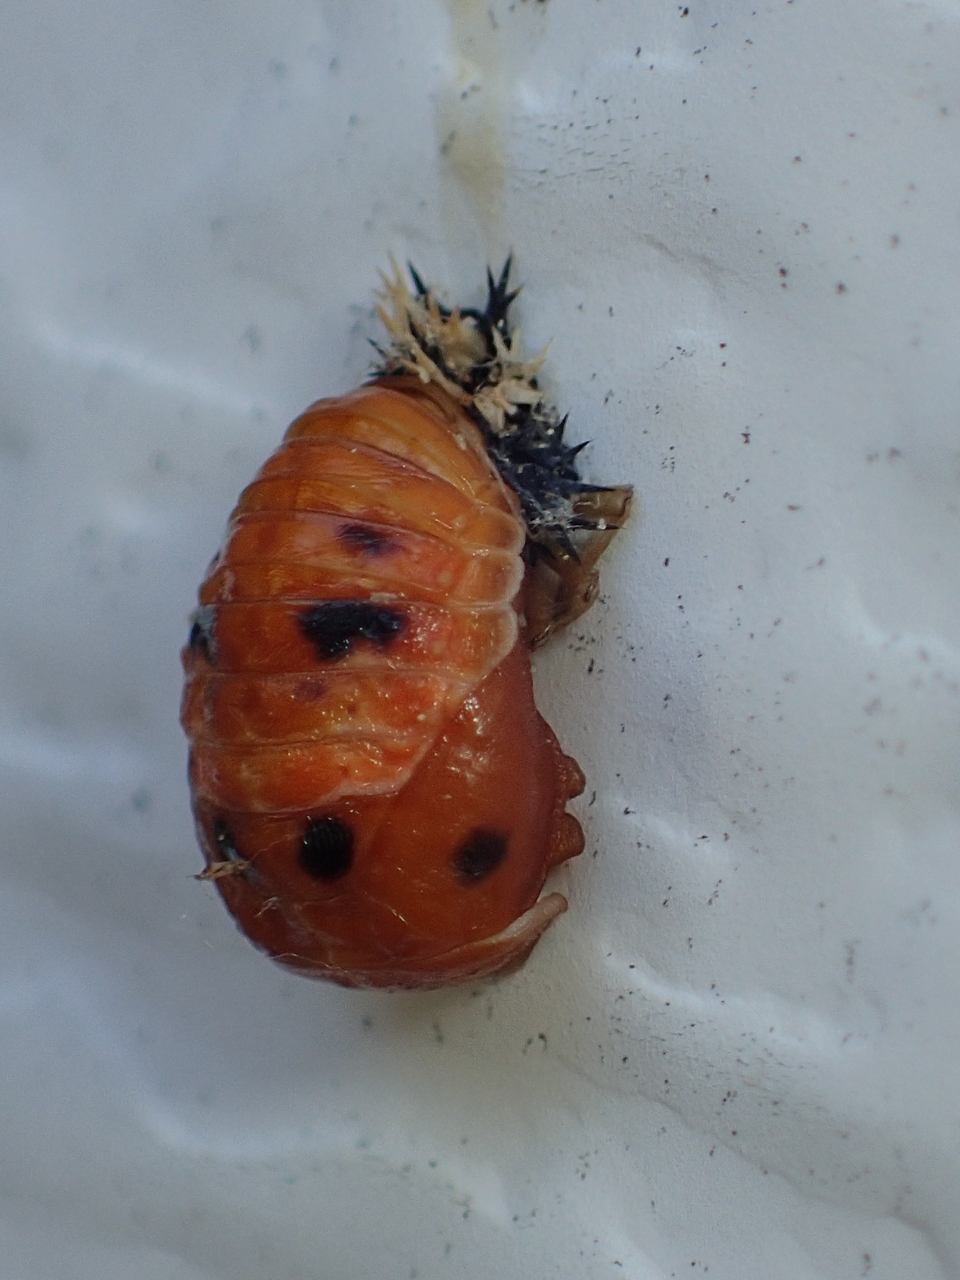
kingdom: Animalia
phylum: Arthropoda
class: Insecta
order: Coleoptera
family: Coccinellidae
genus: Harmonia
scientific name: Harmonia axyridis
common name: Harlequin ladybird
